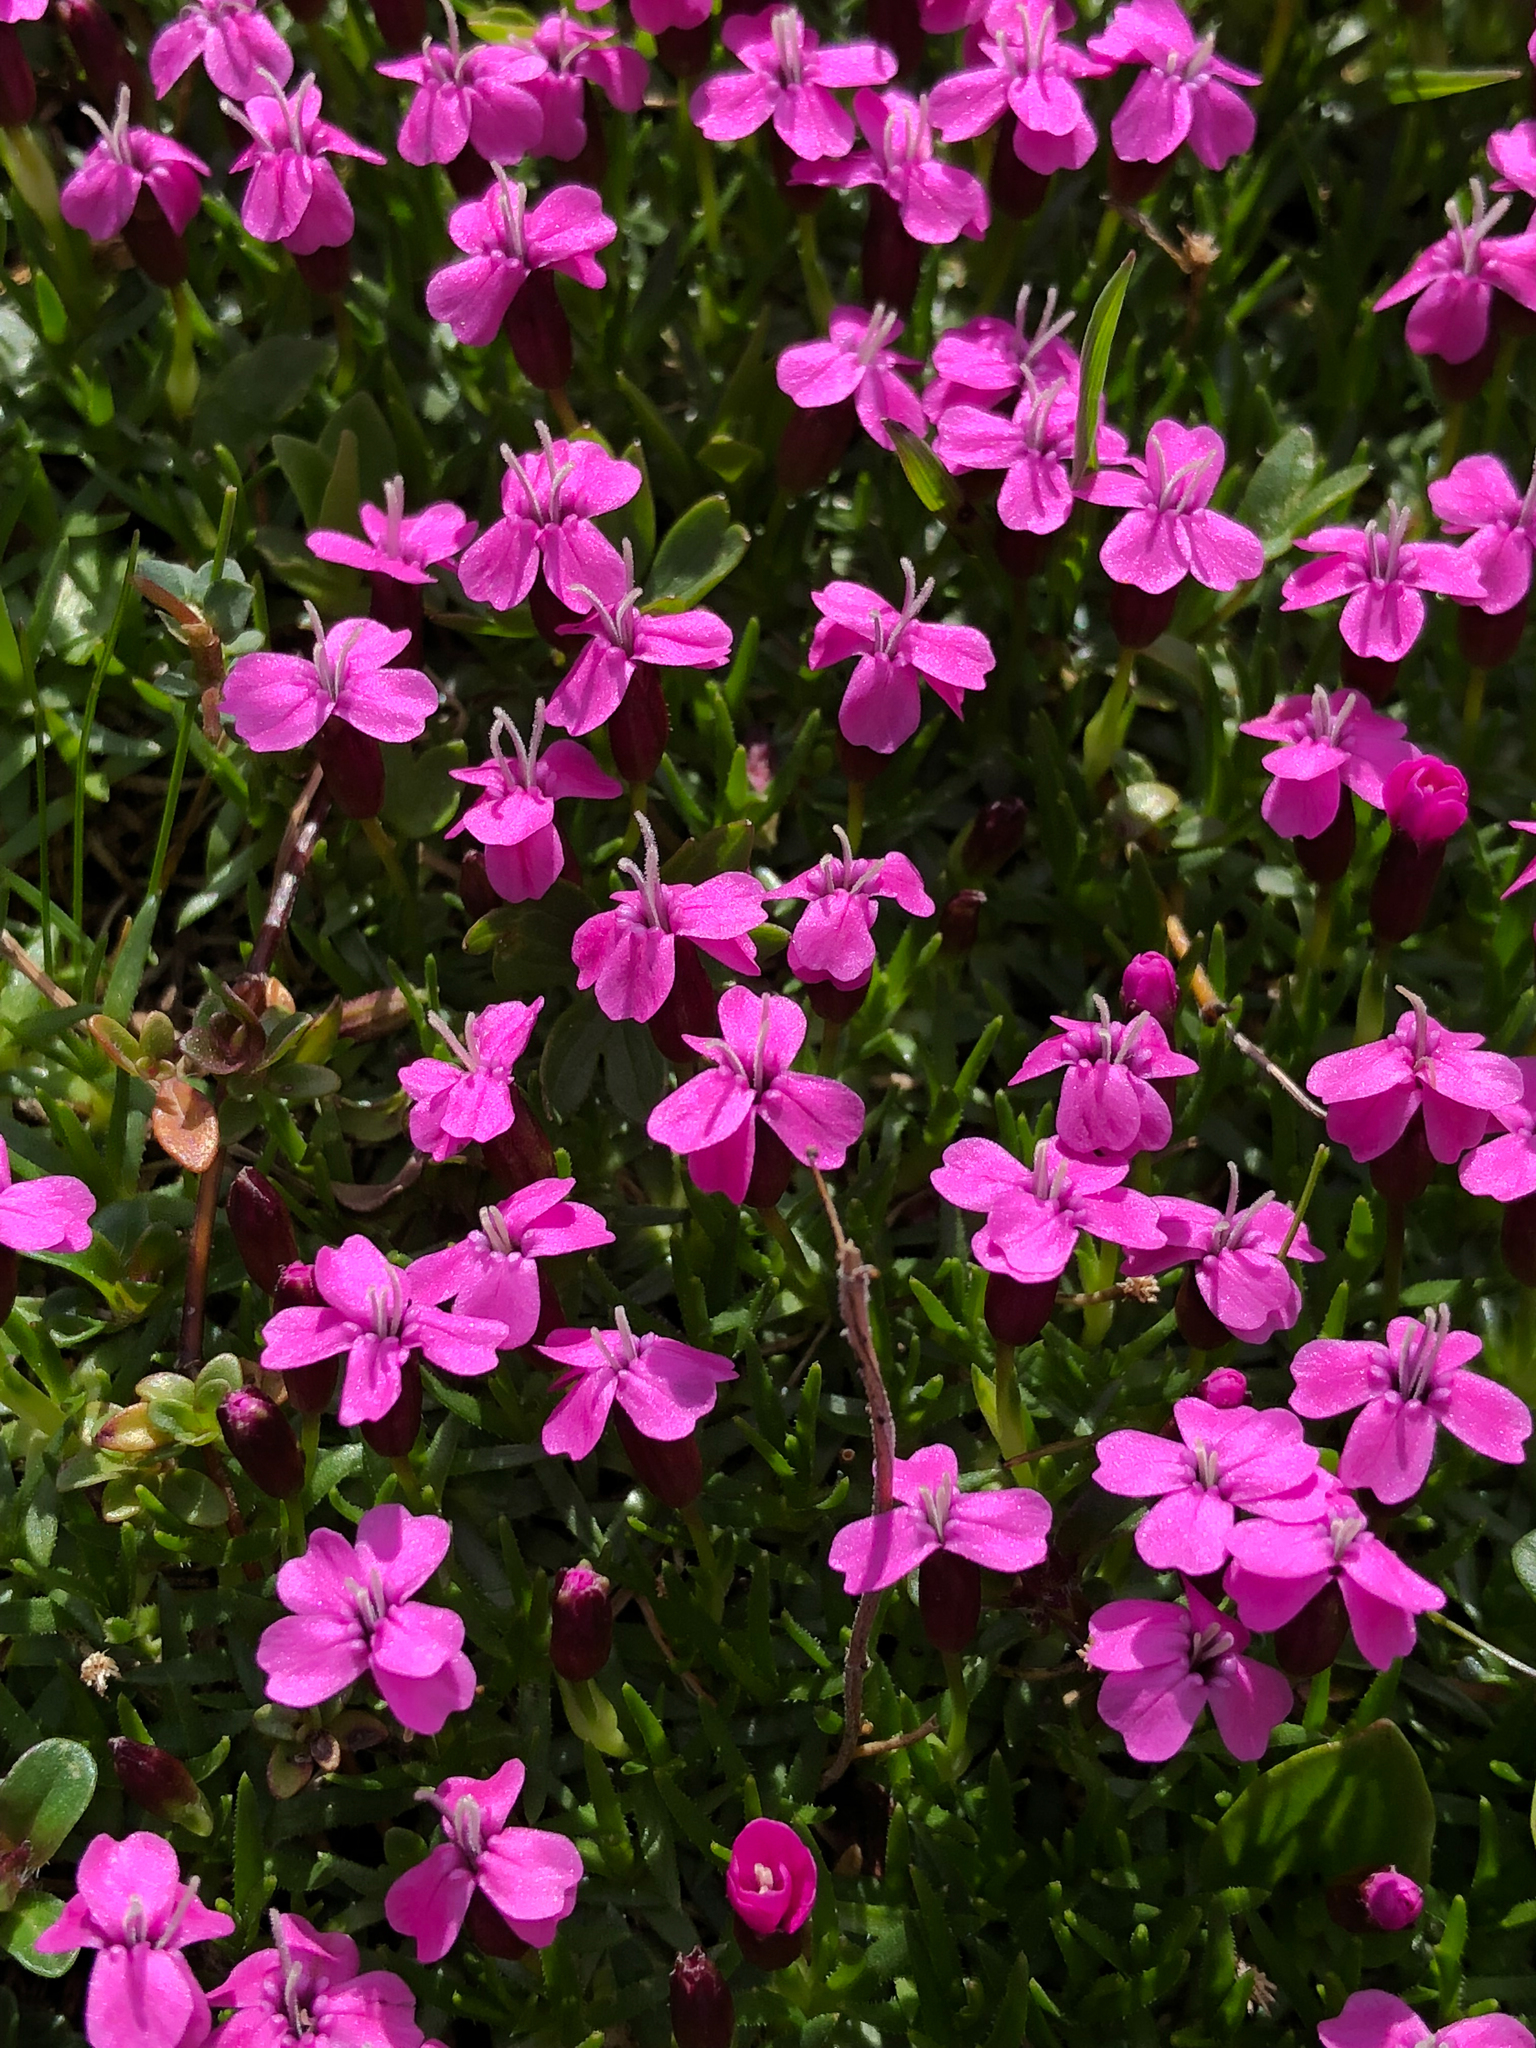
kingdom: Plantae
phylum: Tracheophyta
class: Magnoliopsida
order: Caryophyllales
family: Caryophyllaceae
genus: Silene
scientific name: Silene acaulis
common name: Moss campion
